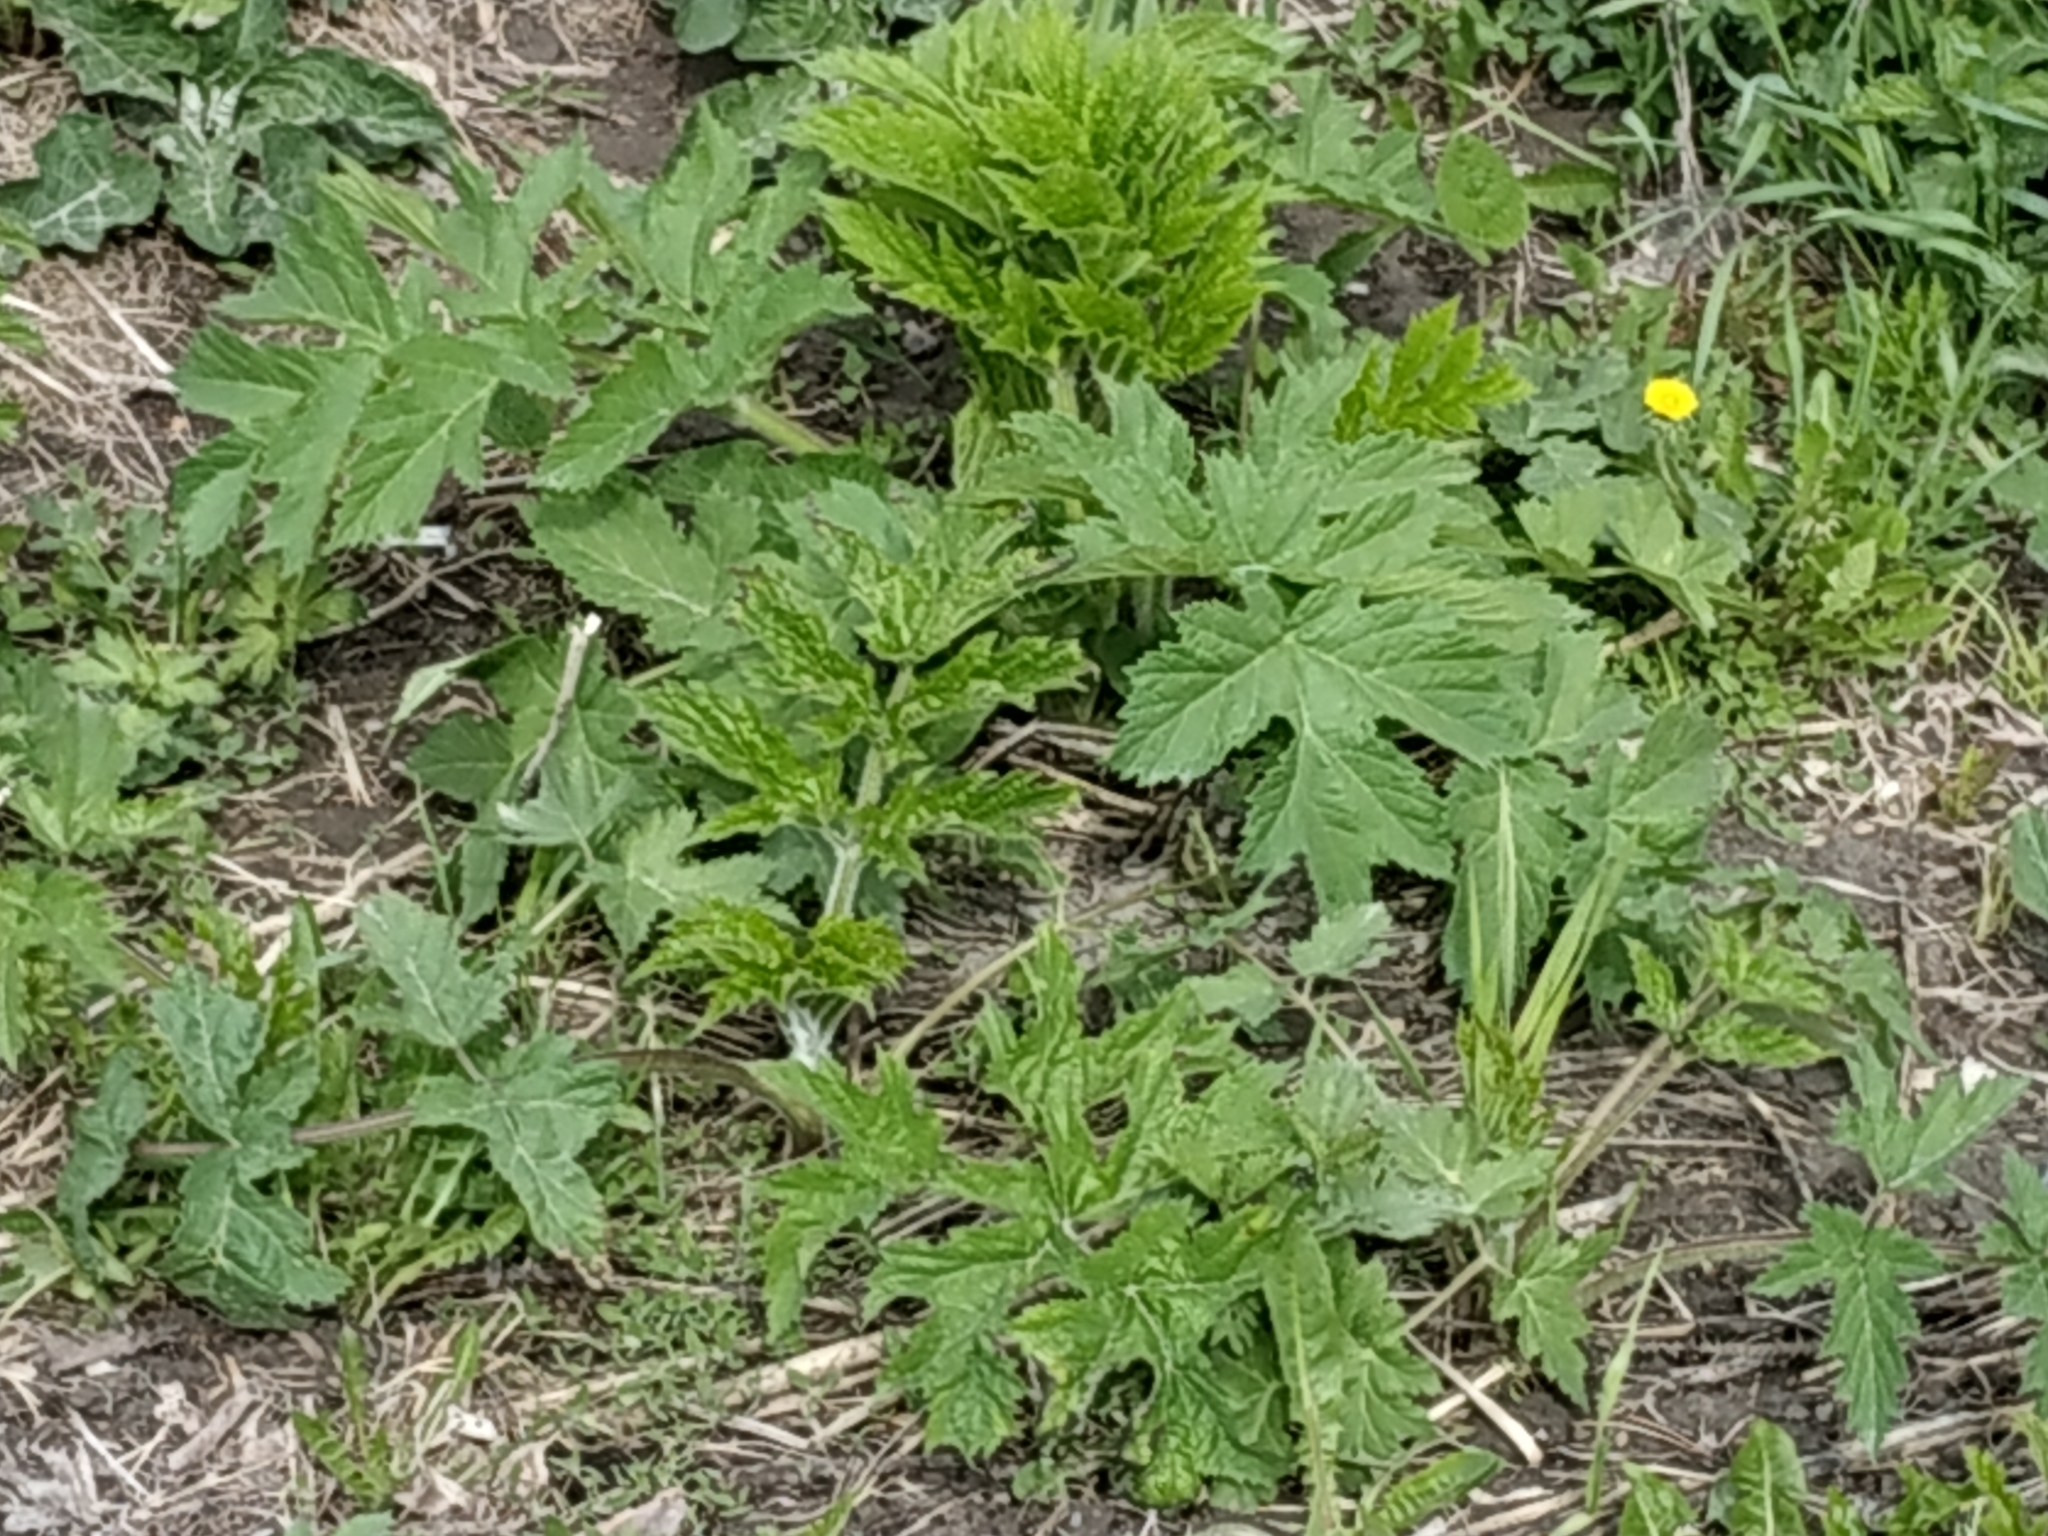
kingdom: Plantae
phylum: Tracheophyta
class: Magnoliopsida
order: Apiales
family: Apiaceae
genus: Heracleum
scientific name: Heracleum sphondylium
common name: Hogweed
